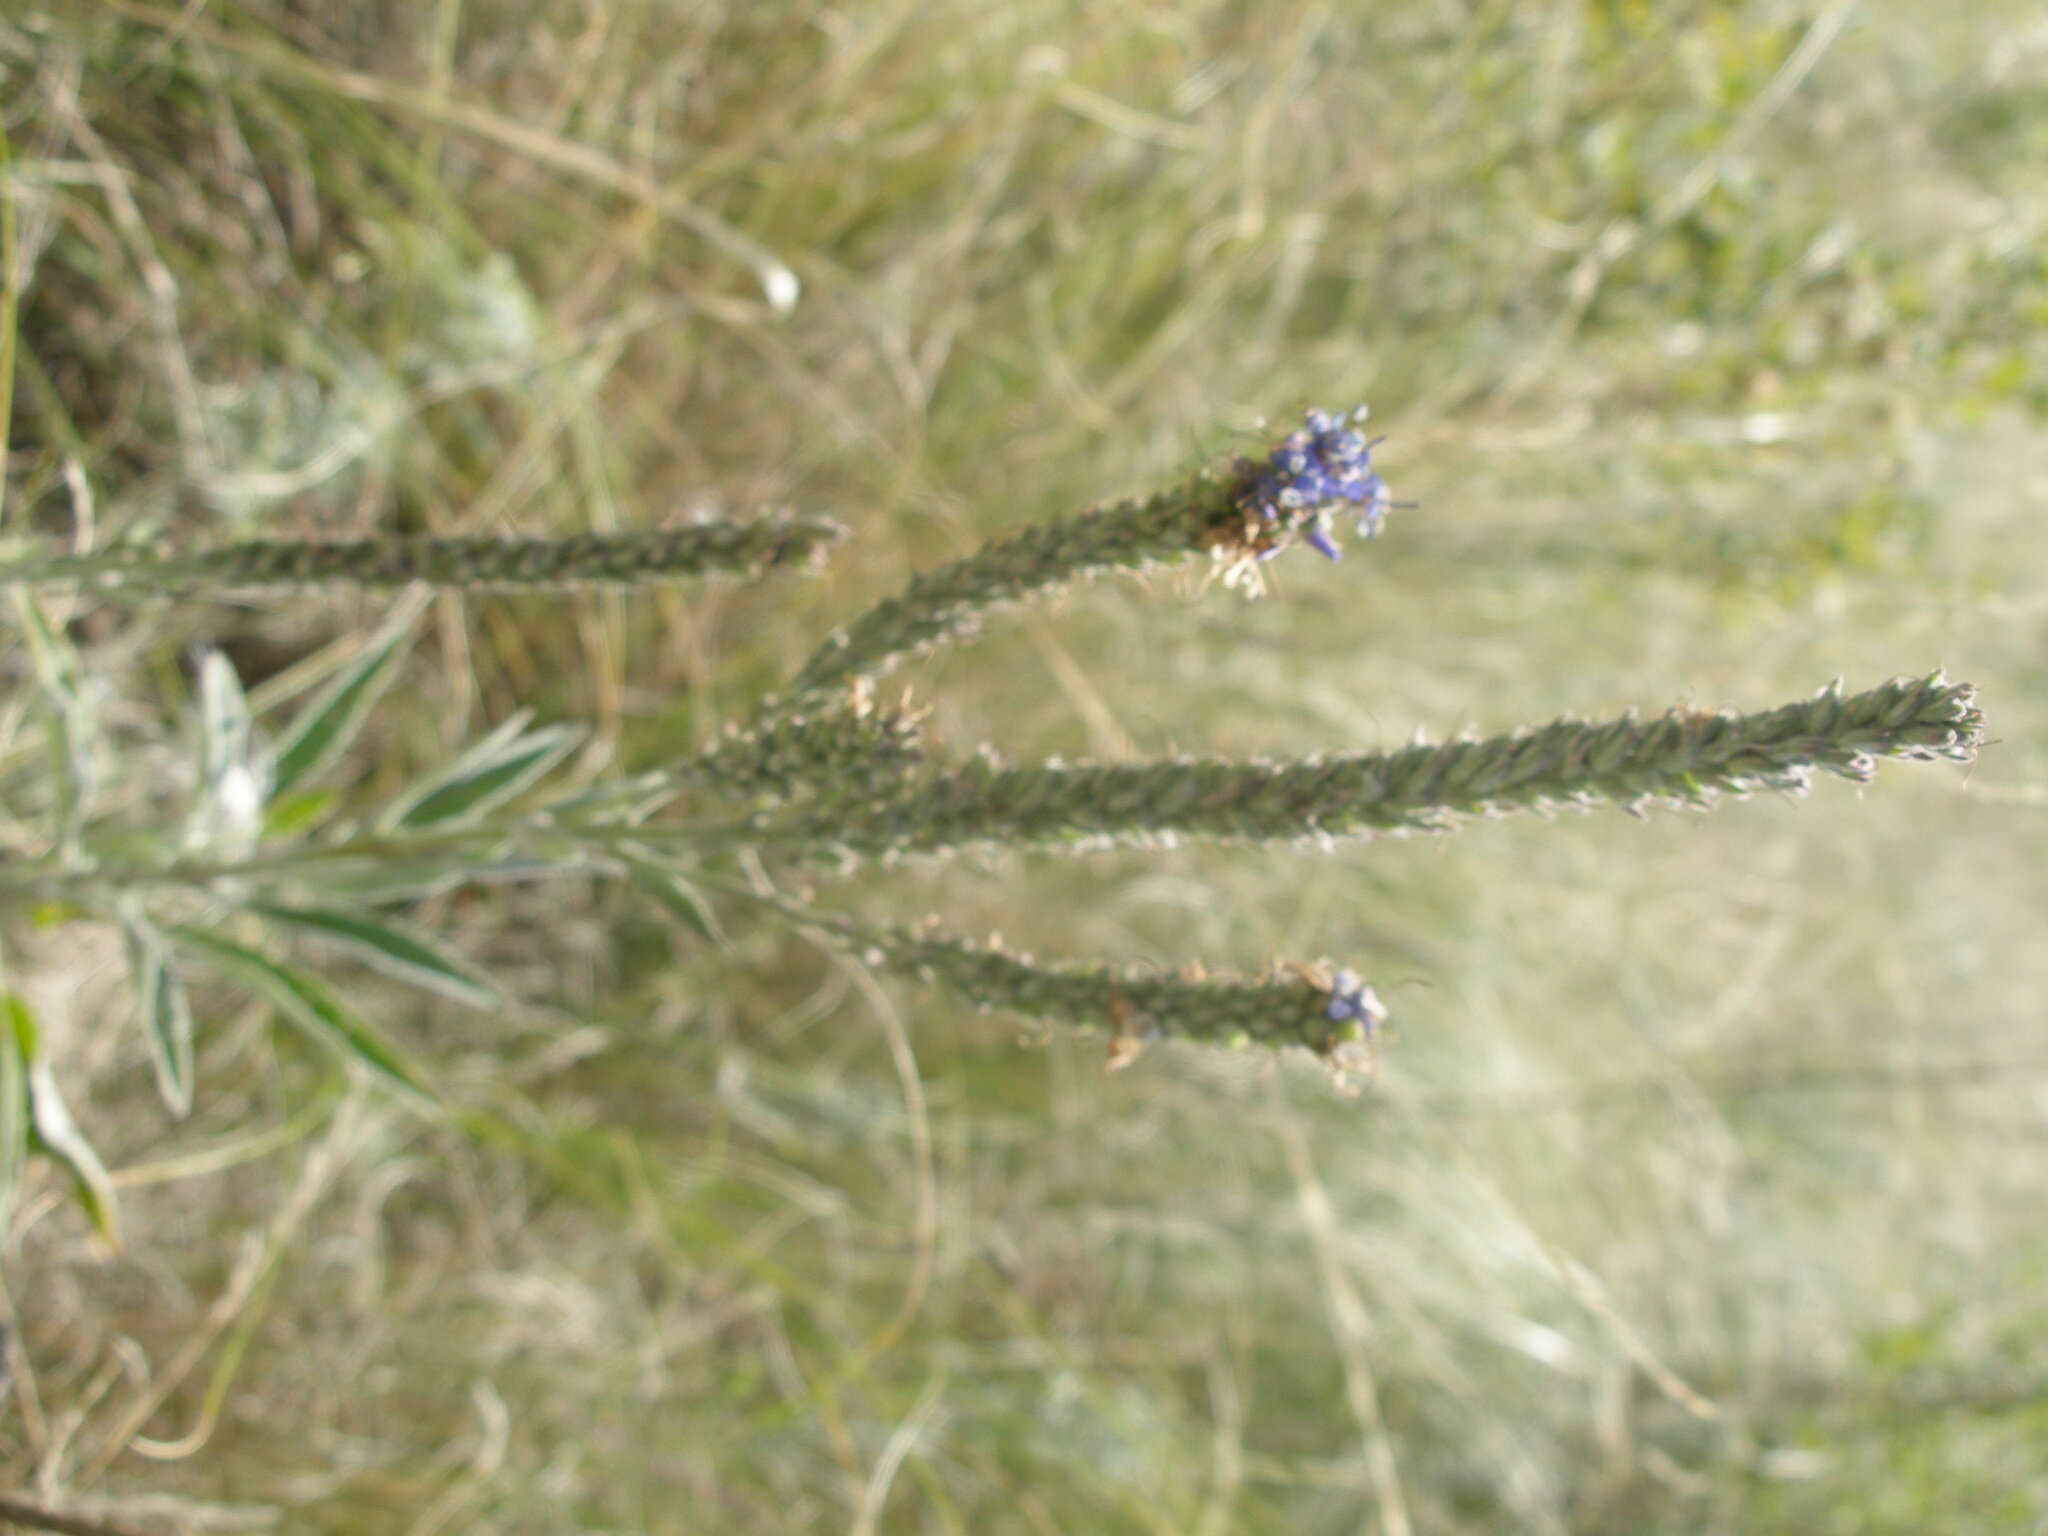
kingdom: Plantae
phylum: Tracheophyta
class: Magnoliopsida
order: Lamiales
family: Plantaginaceae
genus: Veronica
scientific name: Veronica incana
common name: Silver speedwell
